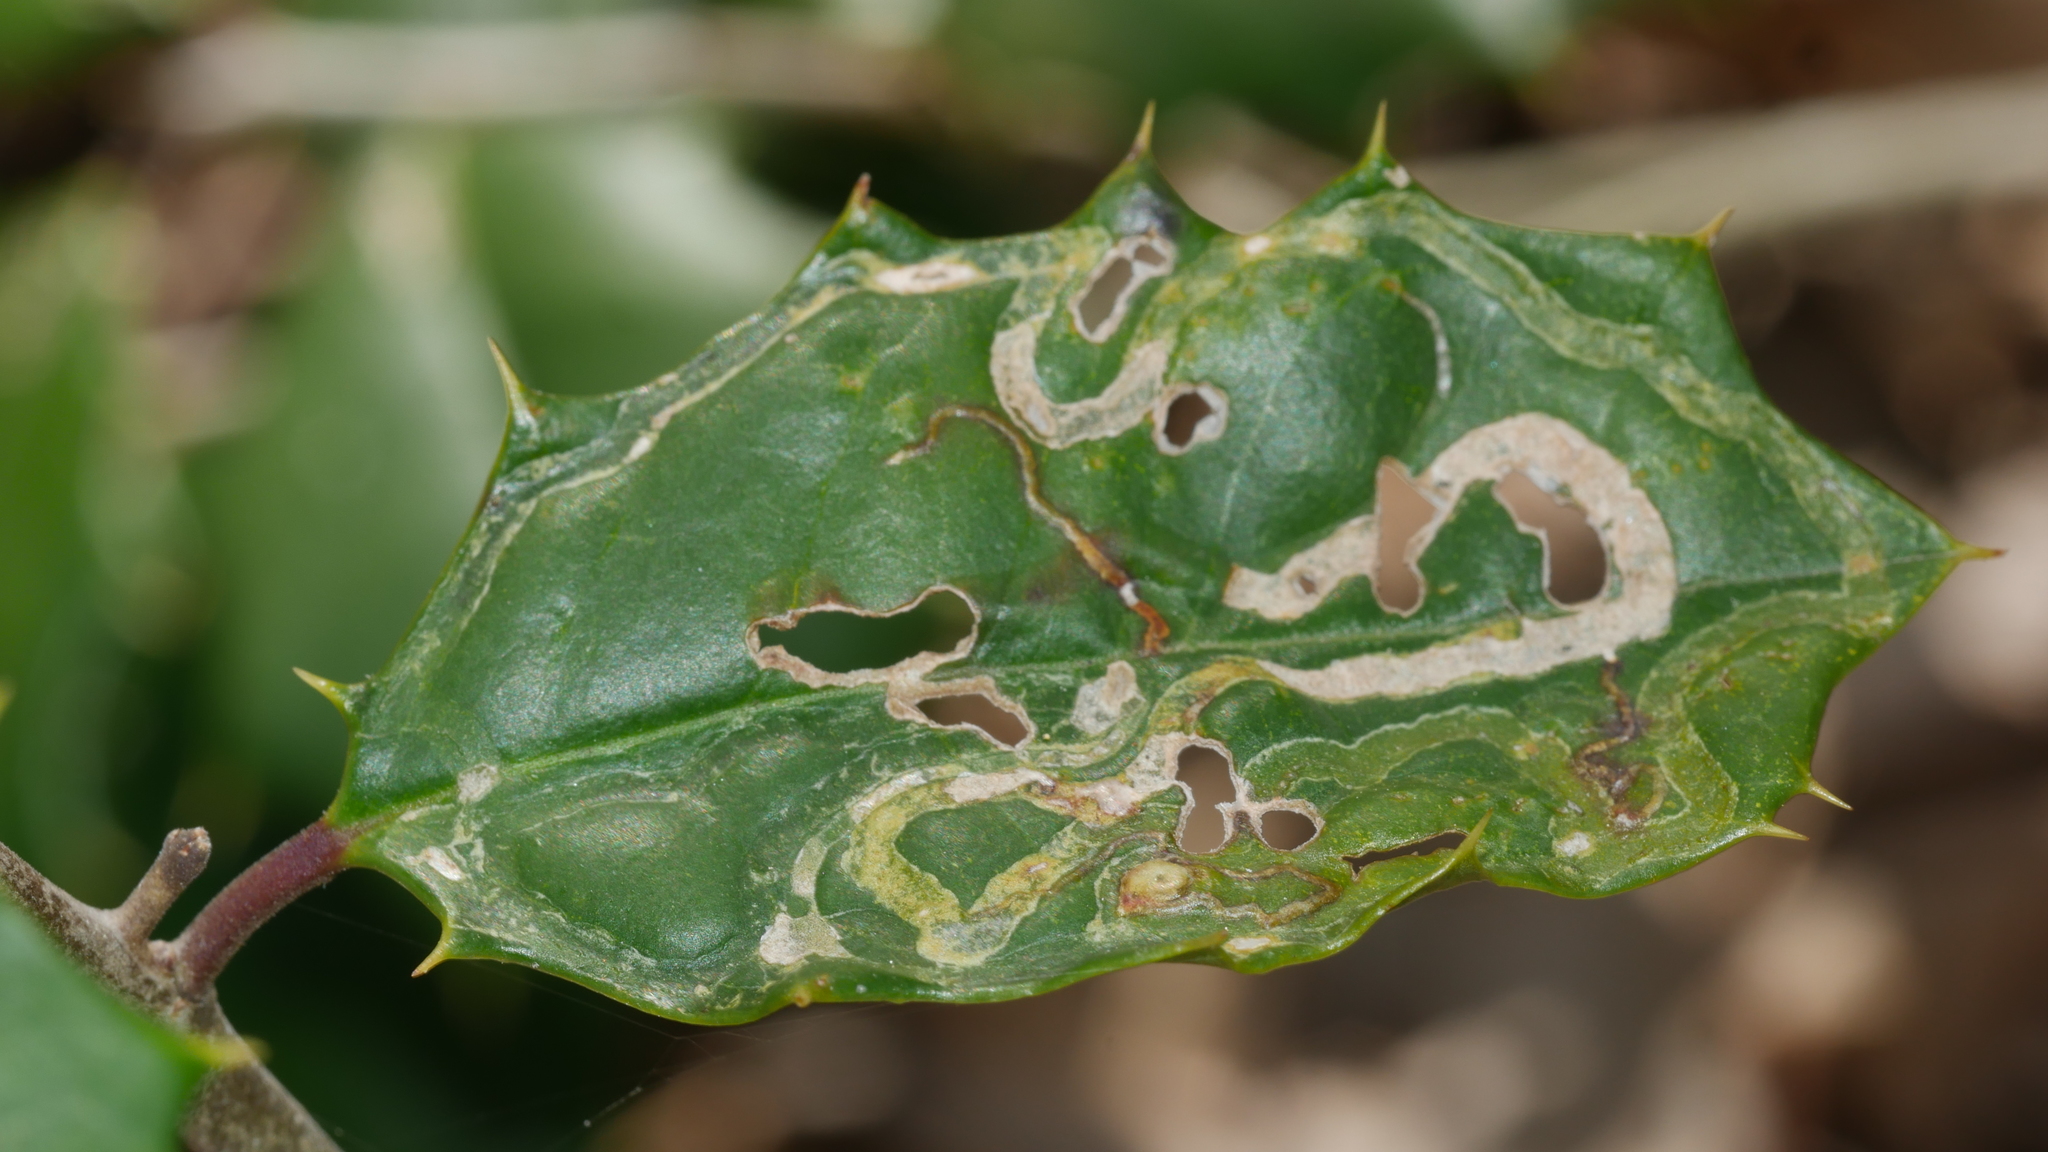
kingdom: Animalia
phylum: Arthropoda
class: Insecta
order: Diptera
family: Agromyzidae
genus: Phytomyza
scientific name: Phytomyza opacae
